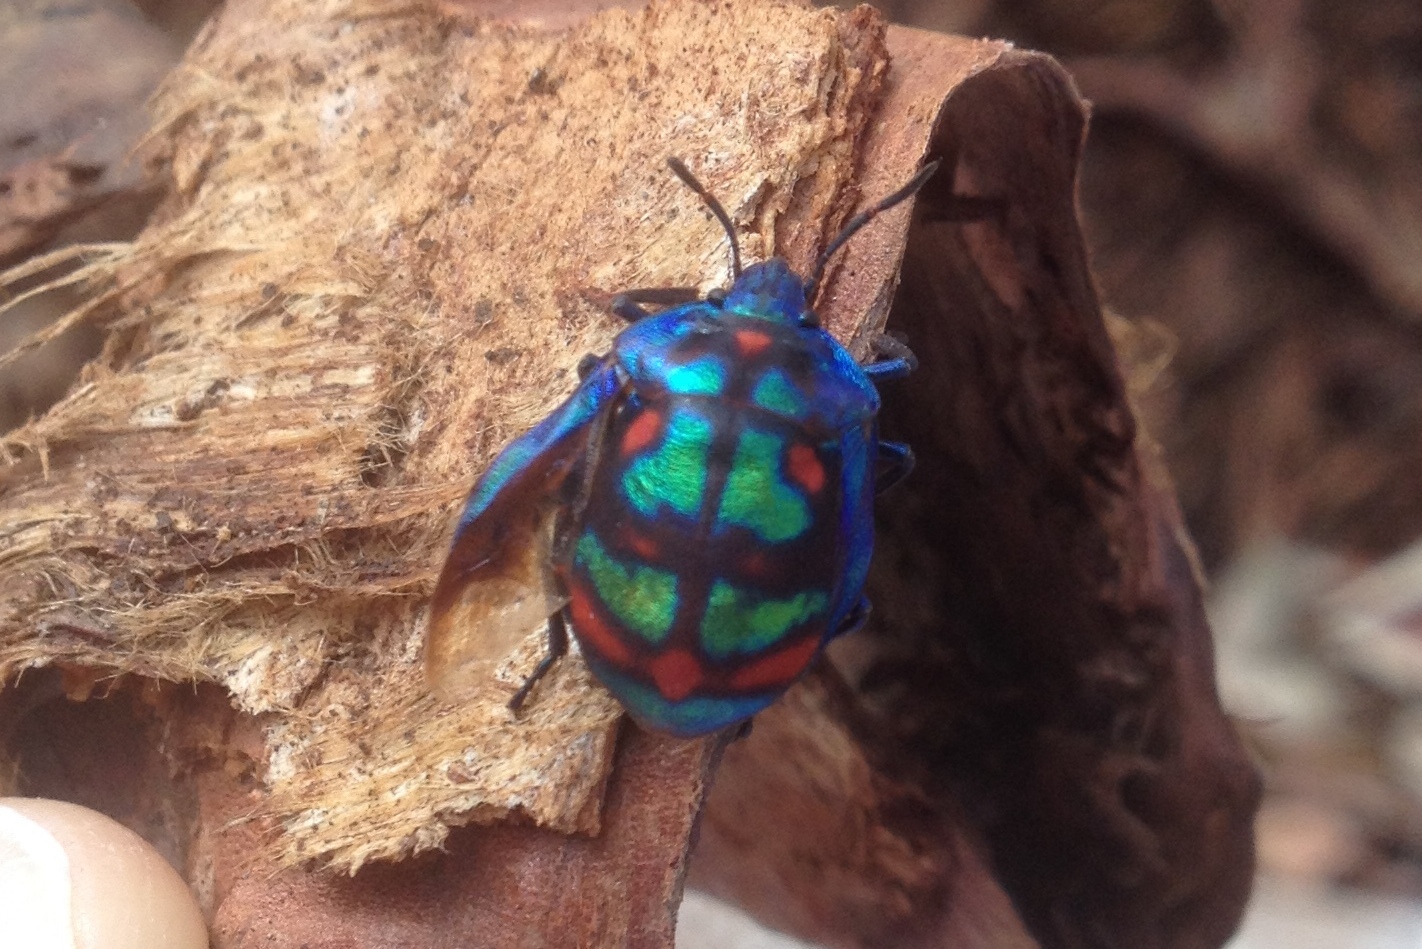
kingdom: Animalia
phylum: Arthropoda
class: Insecta
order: Hemiptera
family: Scutelleridae
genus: Tectocoris
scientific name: Tectocoris diophthalmus
